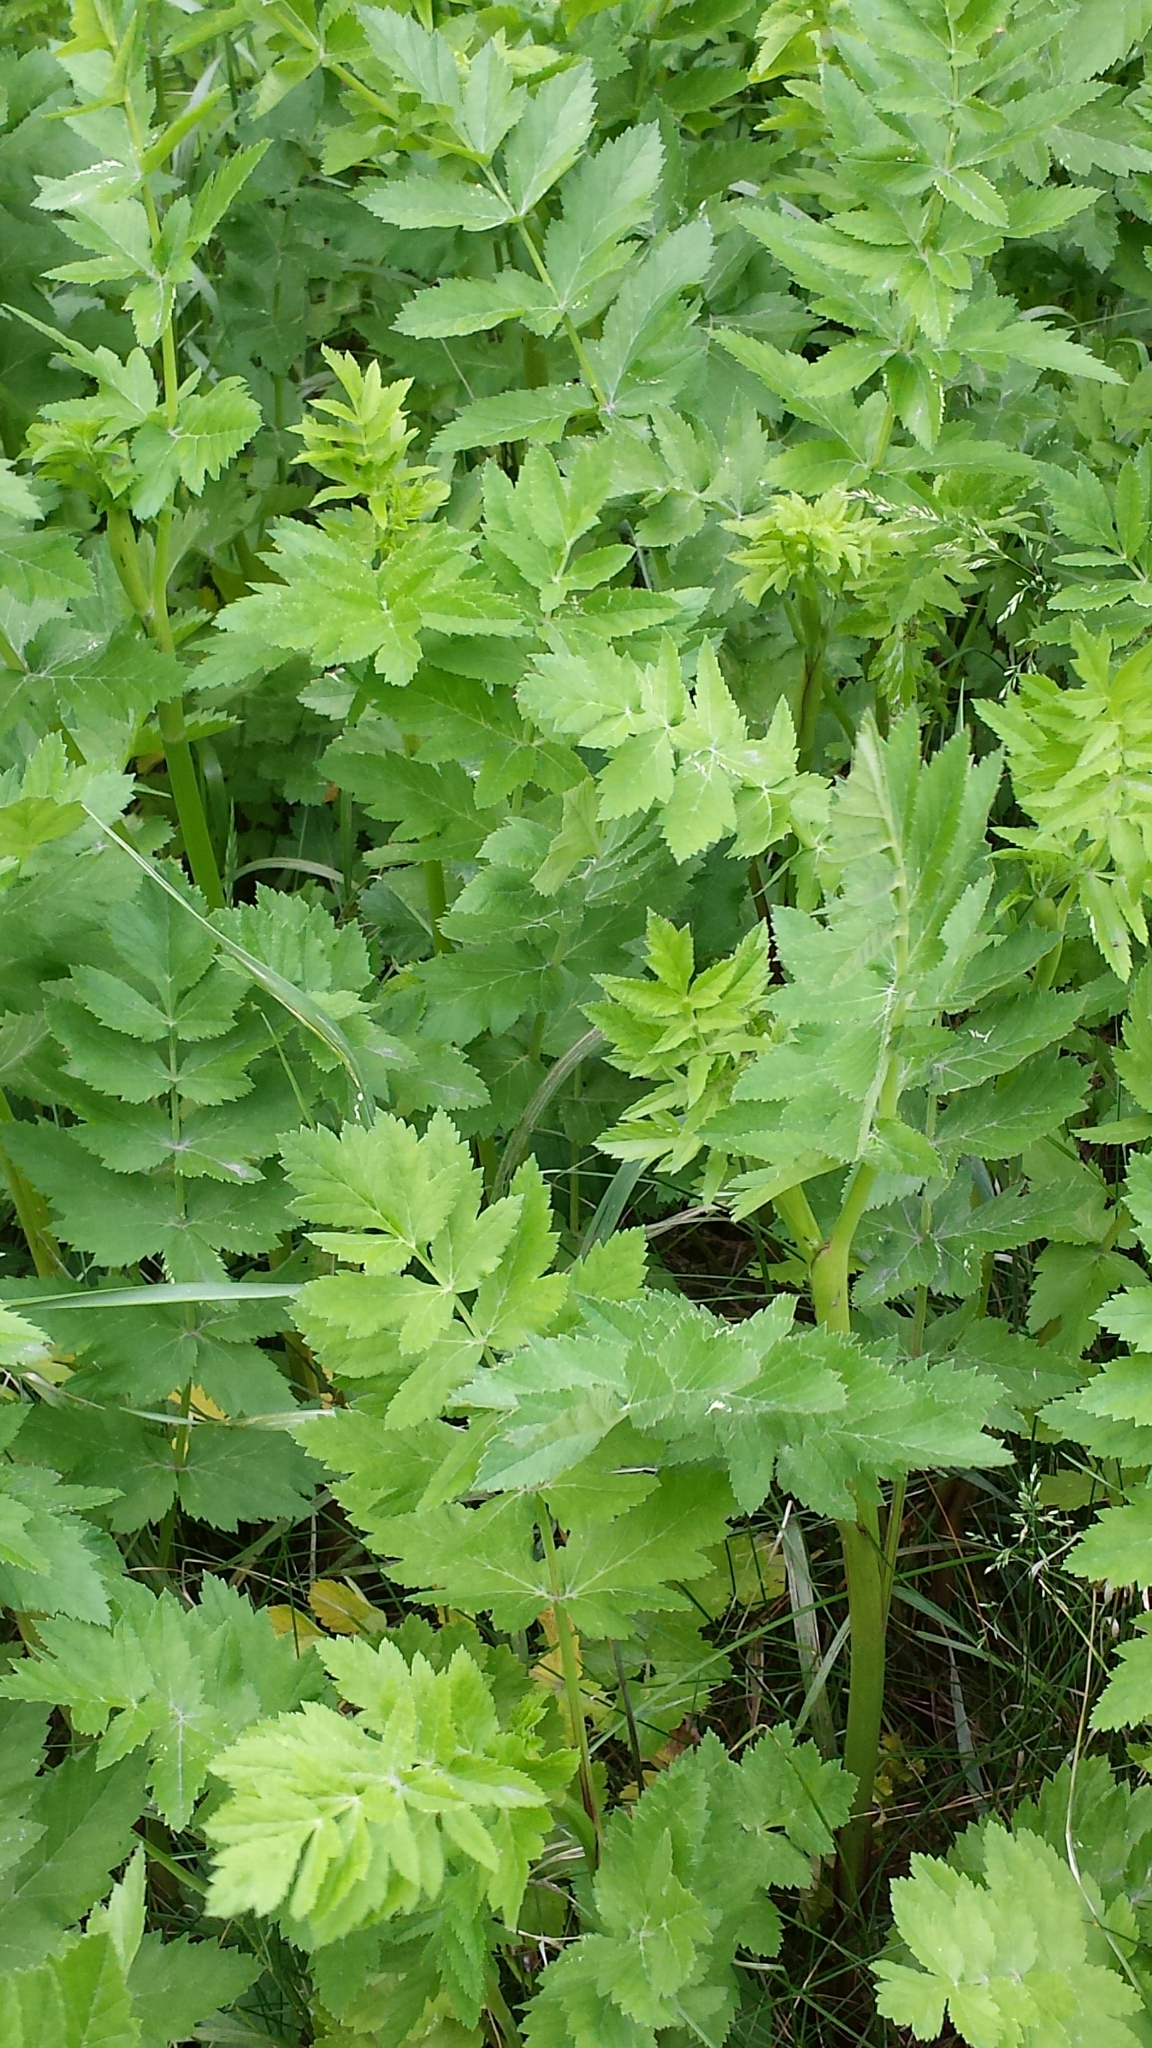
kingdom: Plantae
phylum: Tracheophyta
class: Magnoliopsida
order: Apiales
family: Apiaceae
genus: Pastinaca
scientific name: Pastinaca sativa
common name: Wild parsnip
